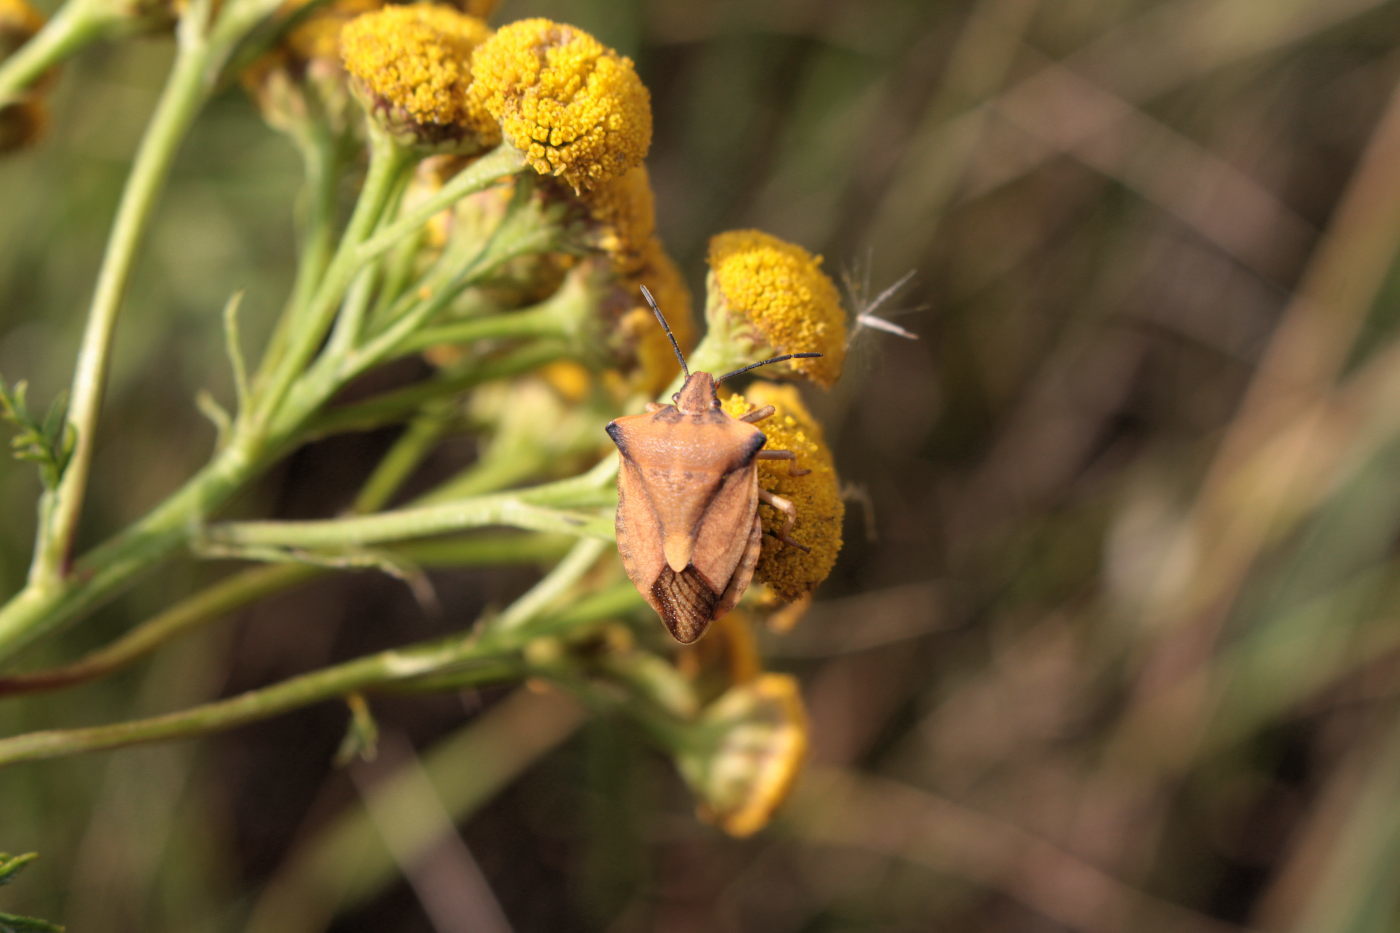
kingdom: Animalia
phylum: Arthropoda
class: Insecta
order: Hemiptera
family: Pentatomidae
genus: Carpocoris
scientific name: Carpocoris fuscispinus
